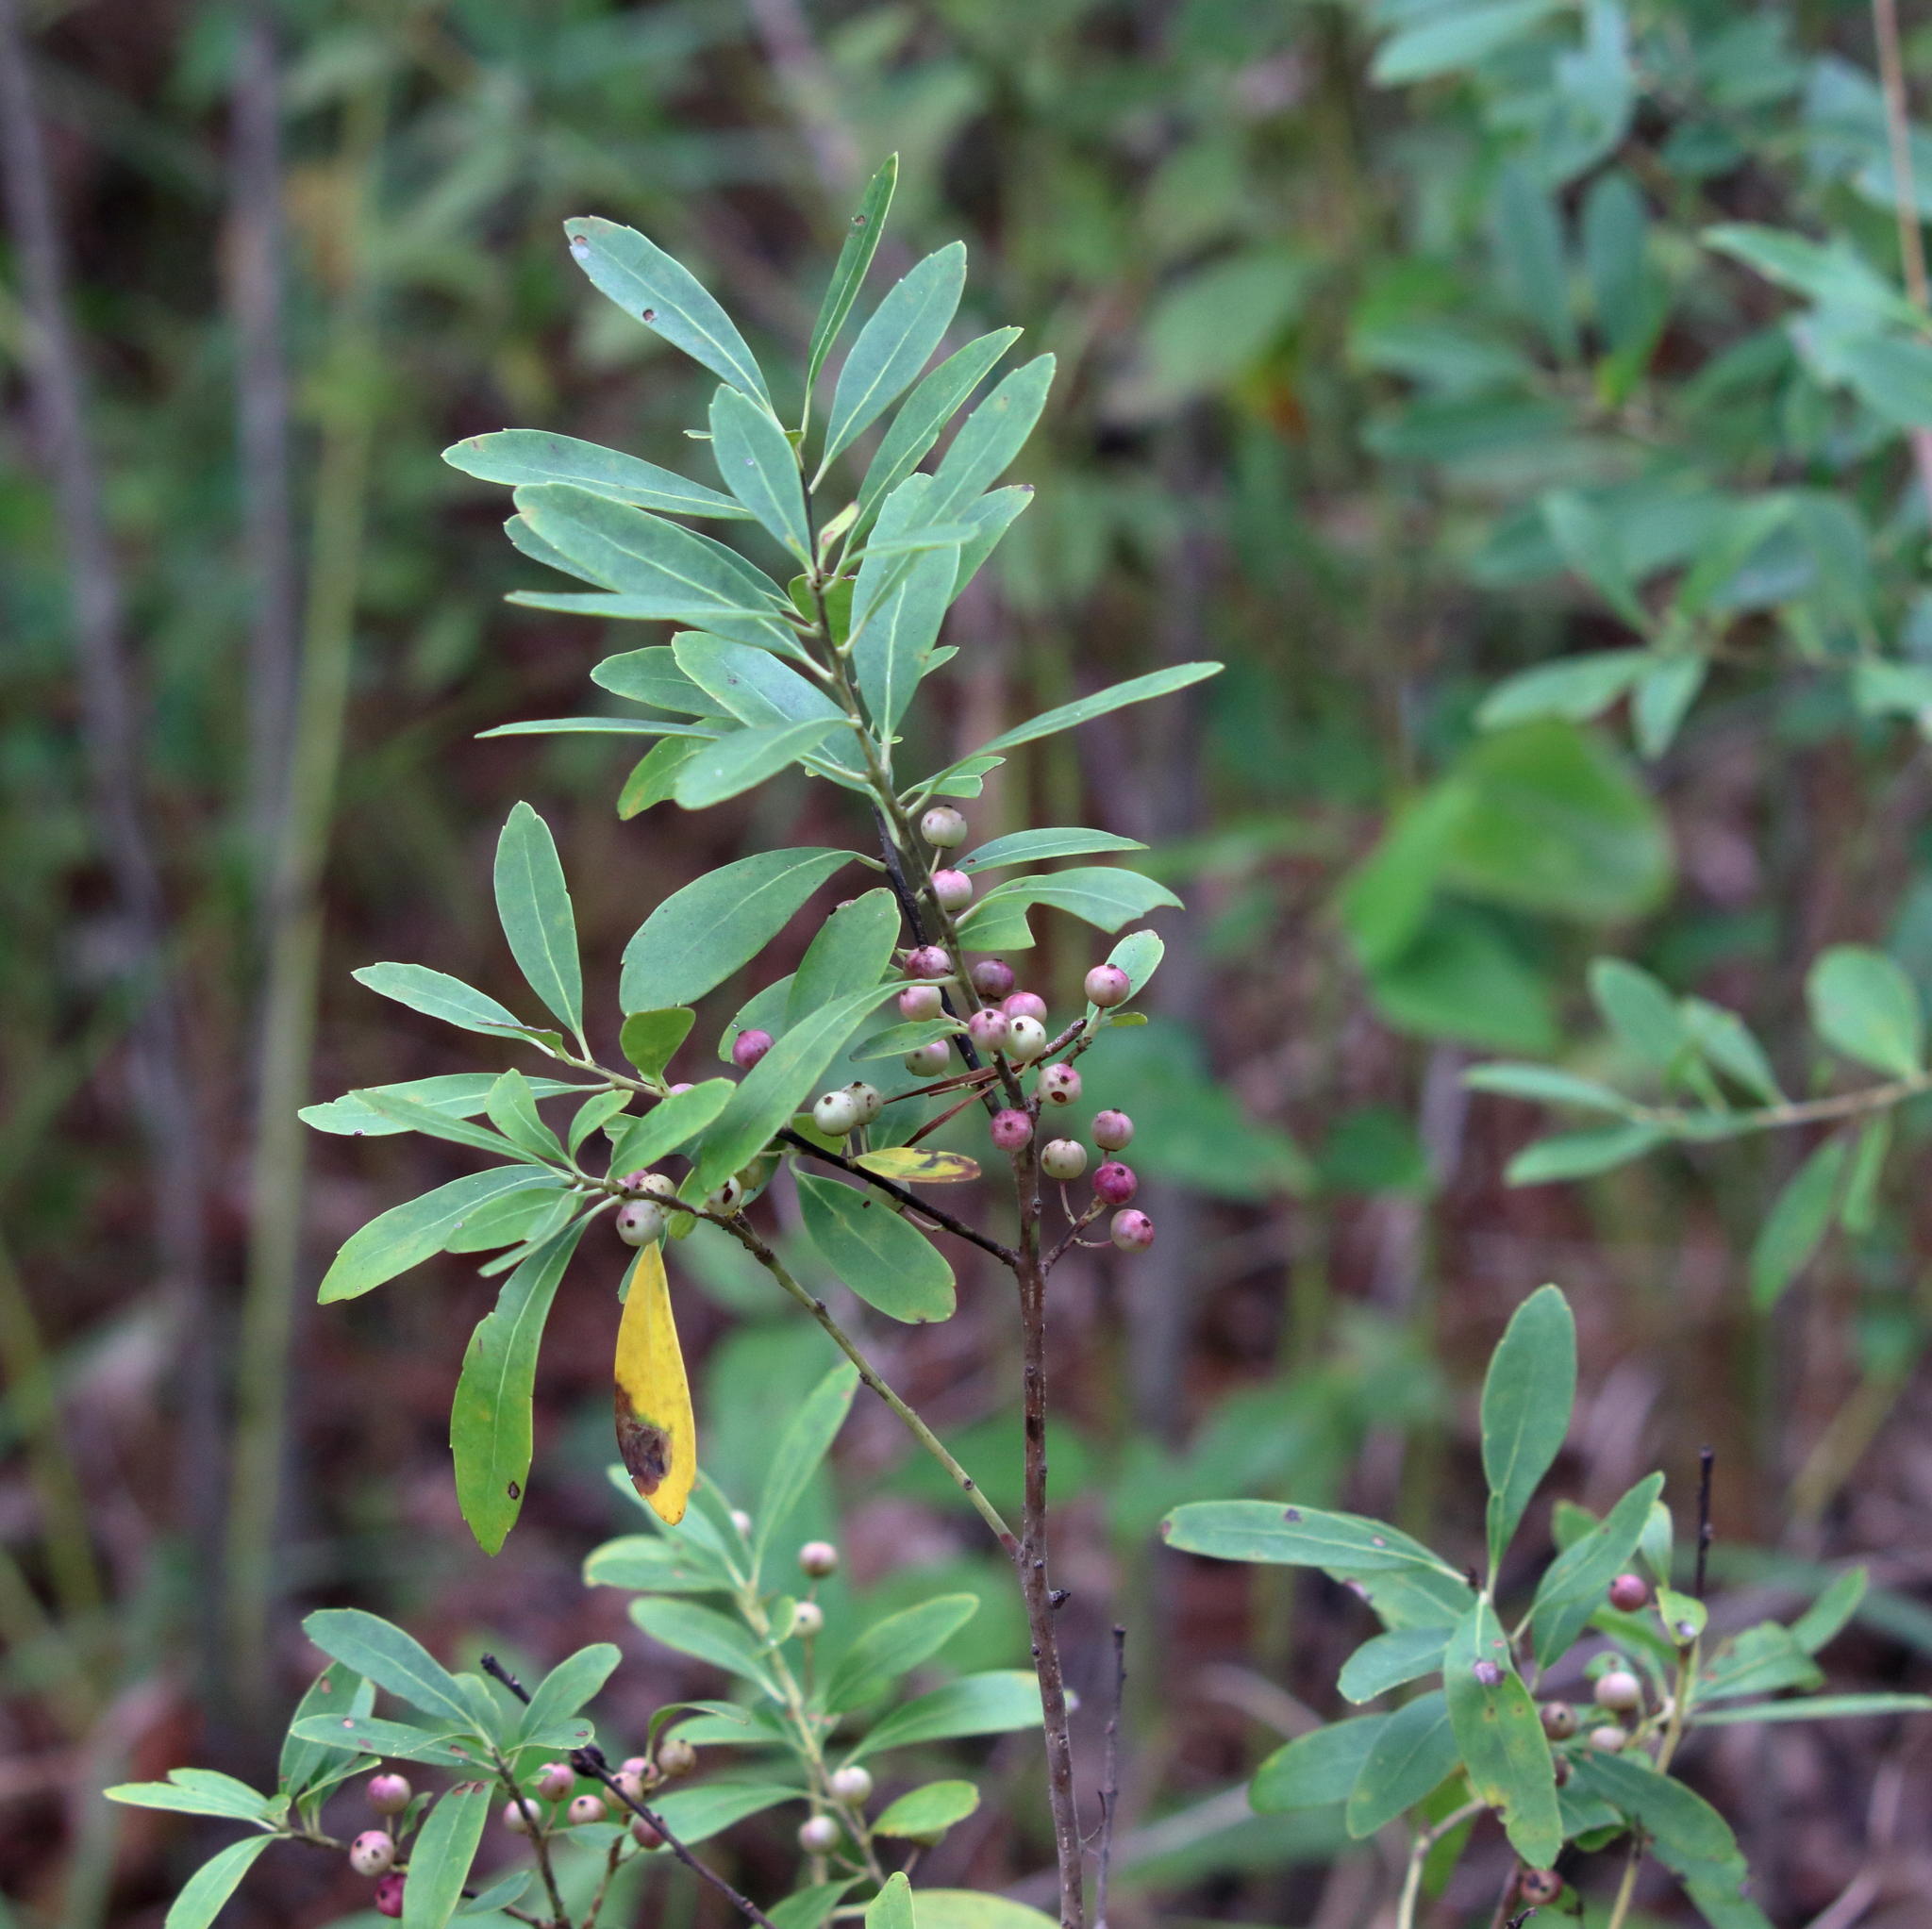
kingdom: Plantae
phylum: Tracheophyta
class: Magnoliopsida
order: Aquifoliales
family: Aquifoliaceae
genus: Ilex
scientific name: Ilex glabra
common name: Bitter gallberry
